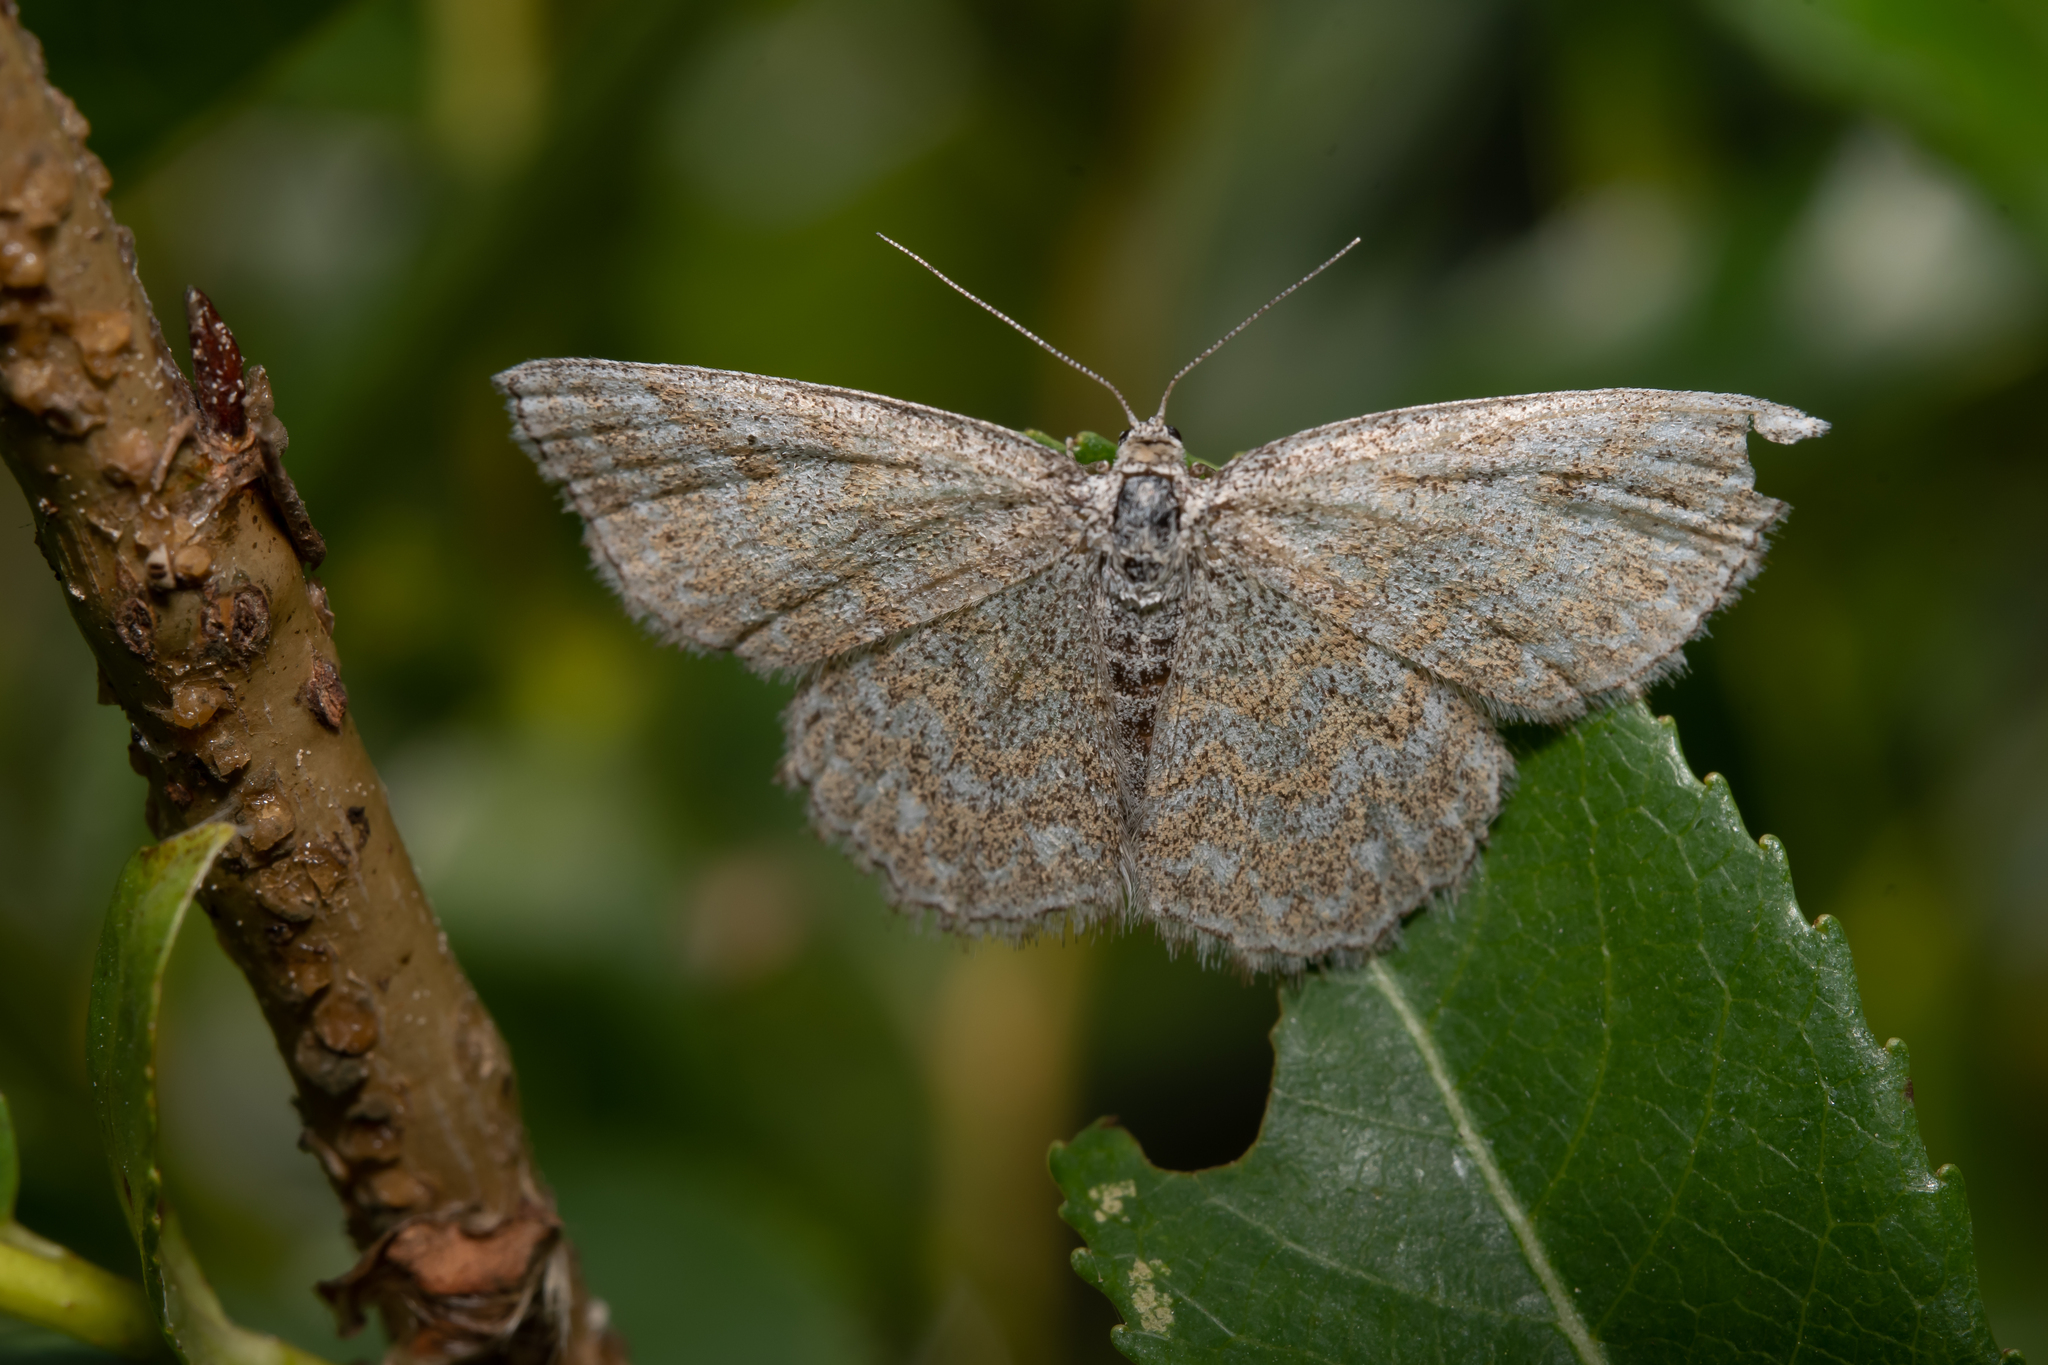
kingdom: Animalia
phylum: Arthropoda
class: Insecta
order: Lepidoptera
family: Geometridae
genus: Scopula
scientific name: Scopula immorata
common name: Lewes wave
